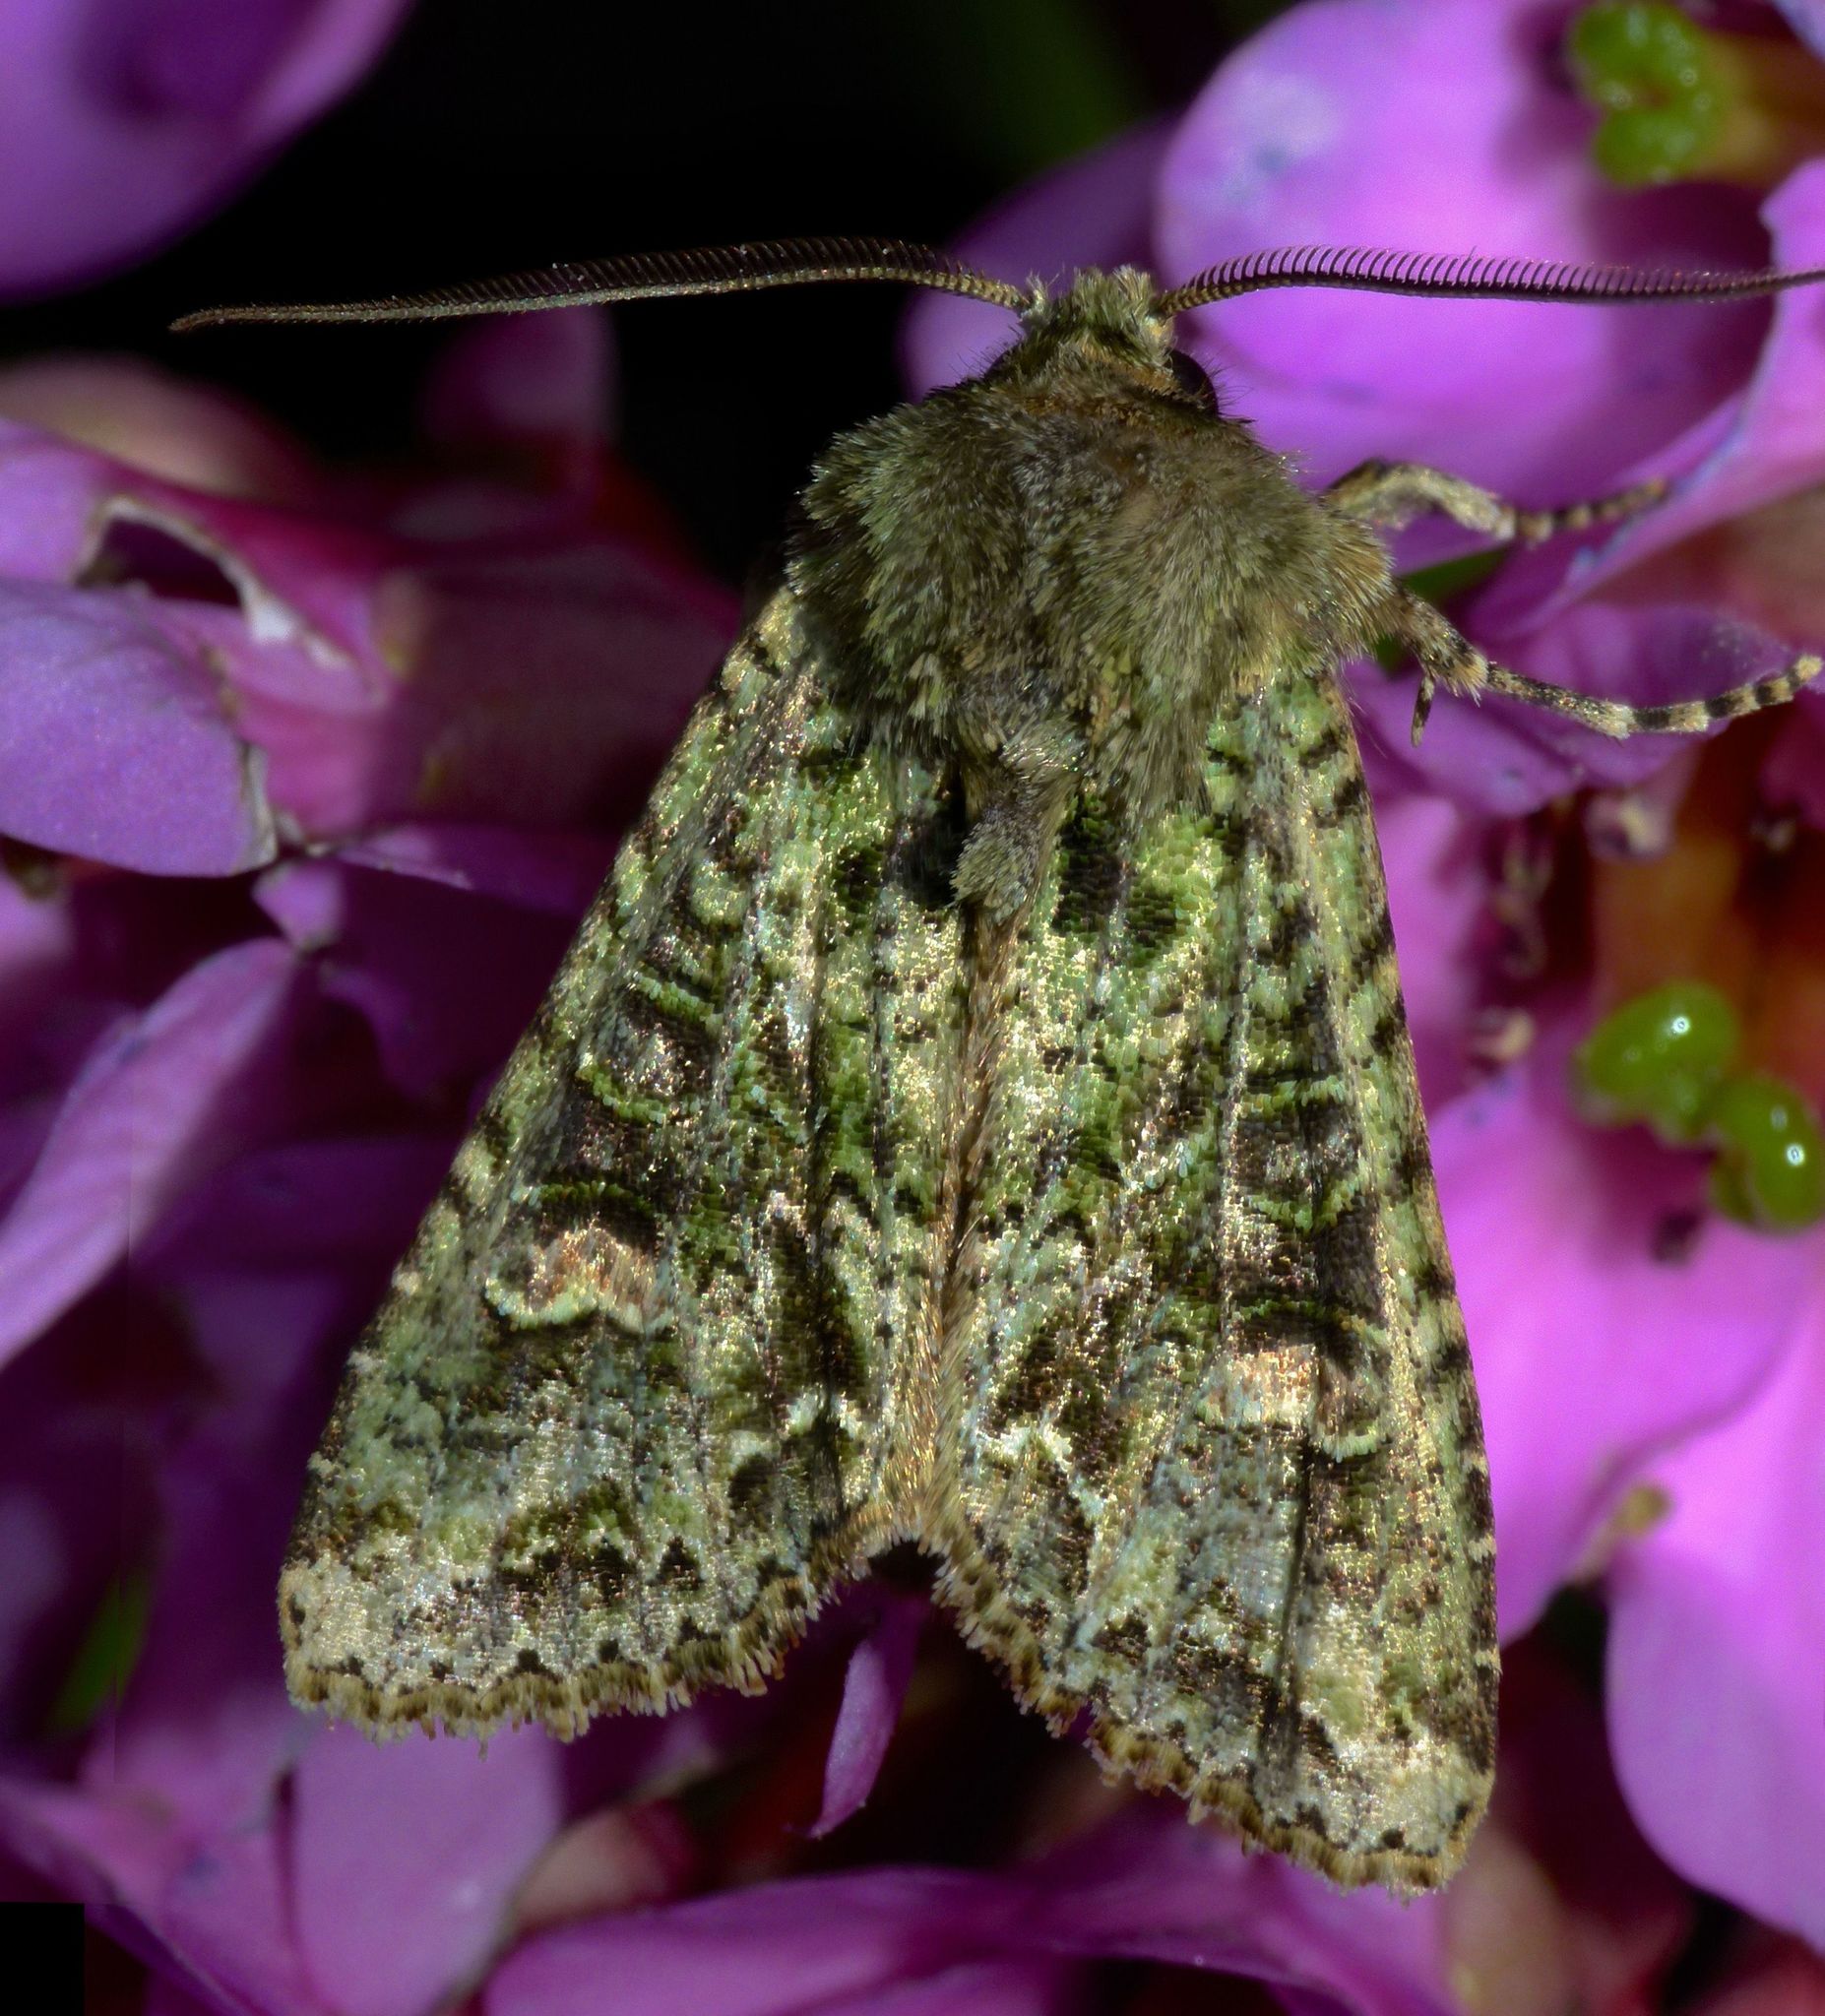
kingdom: Animalia
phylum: Arthropoda
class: Insecta
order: Lepidoptera
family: Noctuidae
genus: Ichneutica
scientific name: Ichneutica
